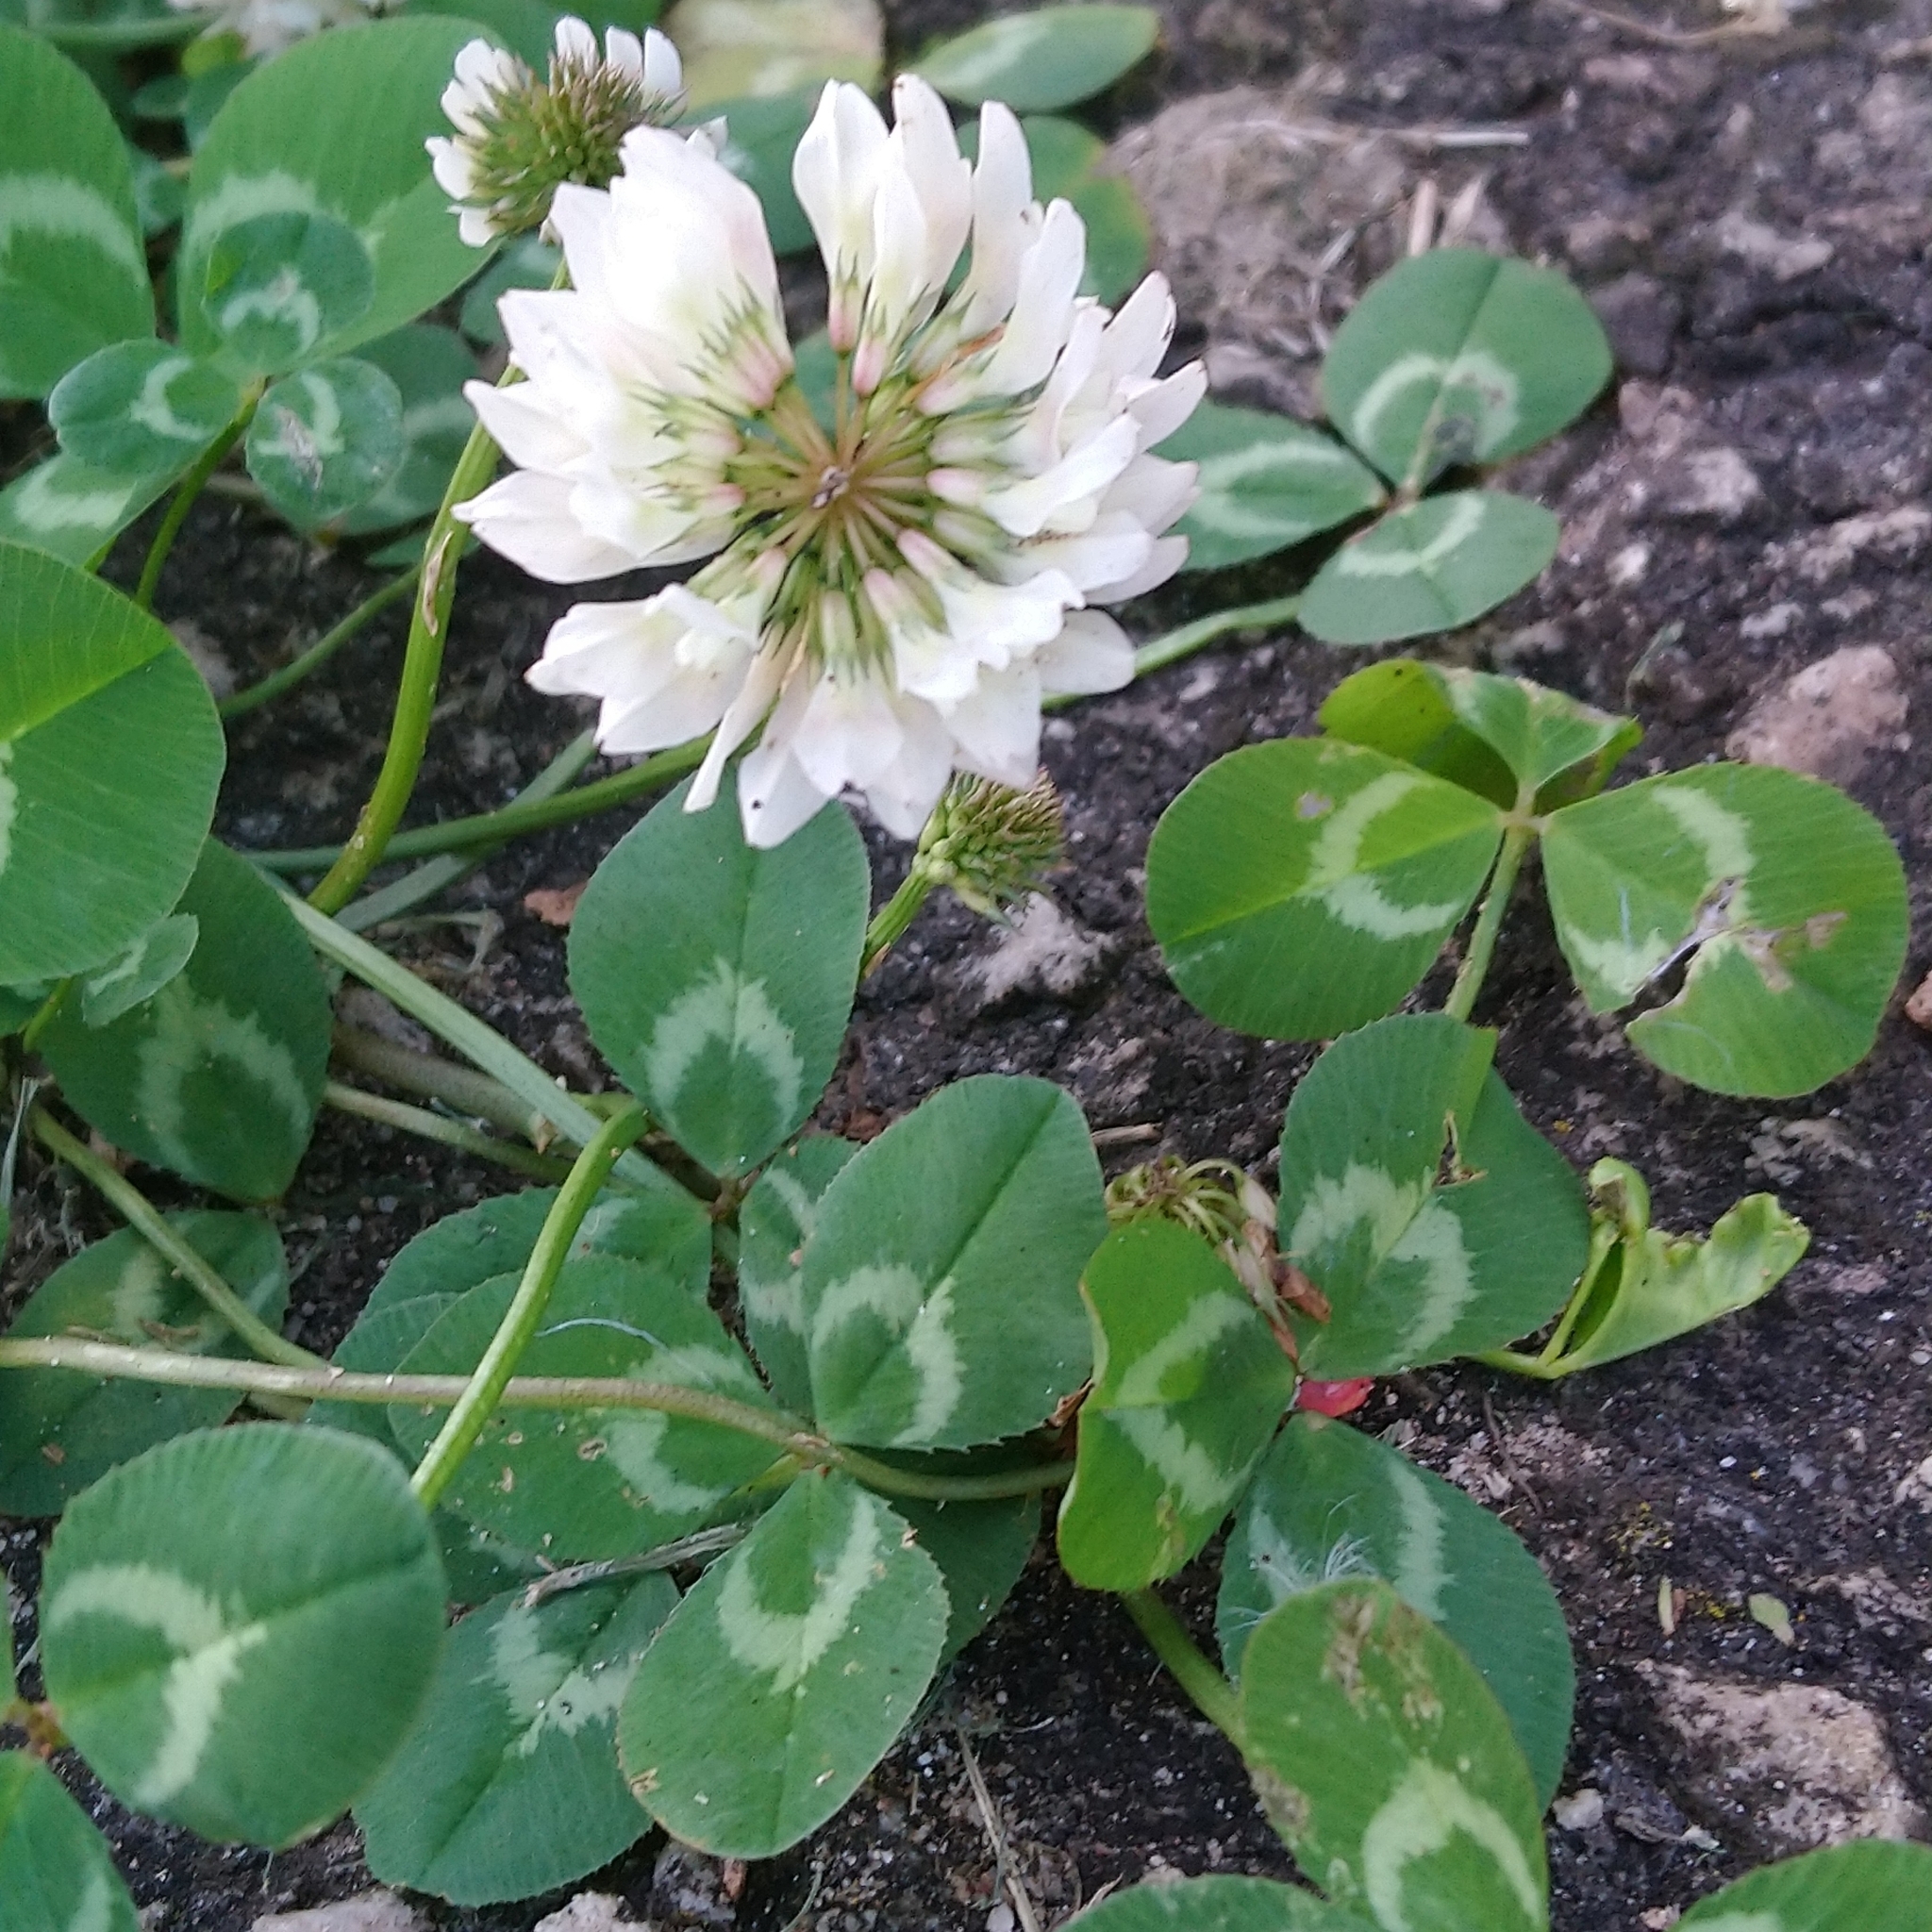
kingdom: Plantae
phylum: Tracheophyta
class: Magnoliopsida
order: Fabales
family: Fabaceae
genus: Trifolium
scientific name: Trifolium repens
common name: White clover
